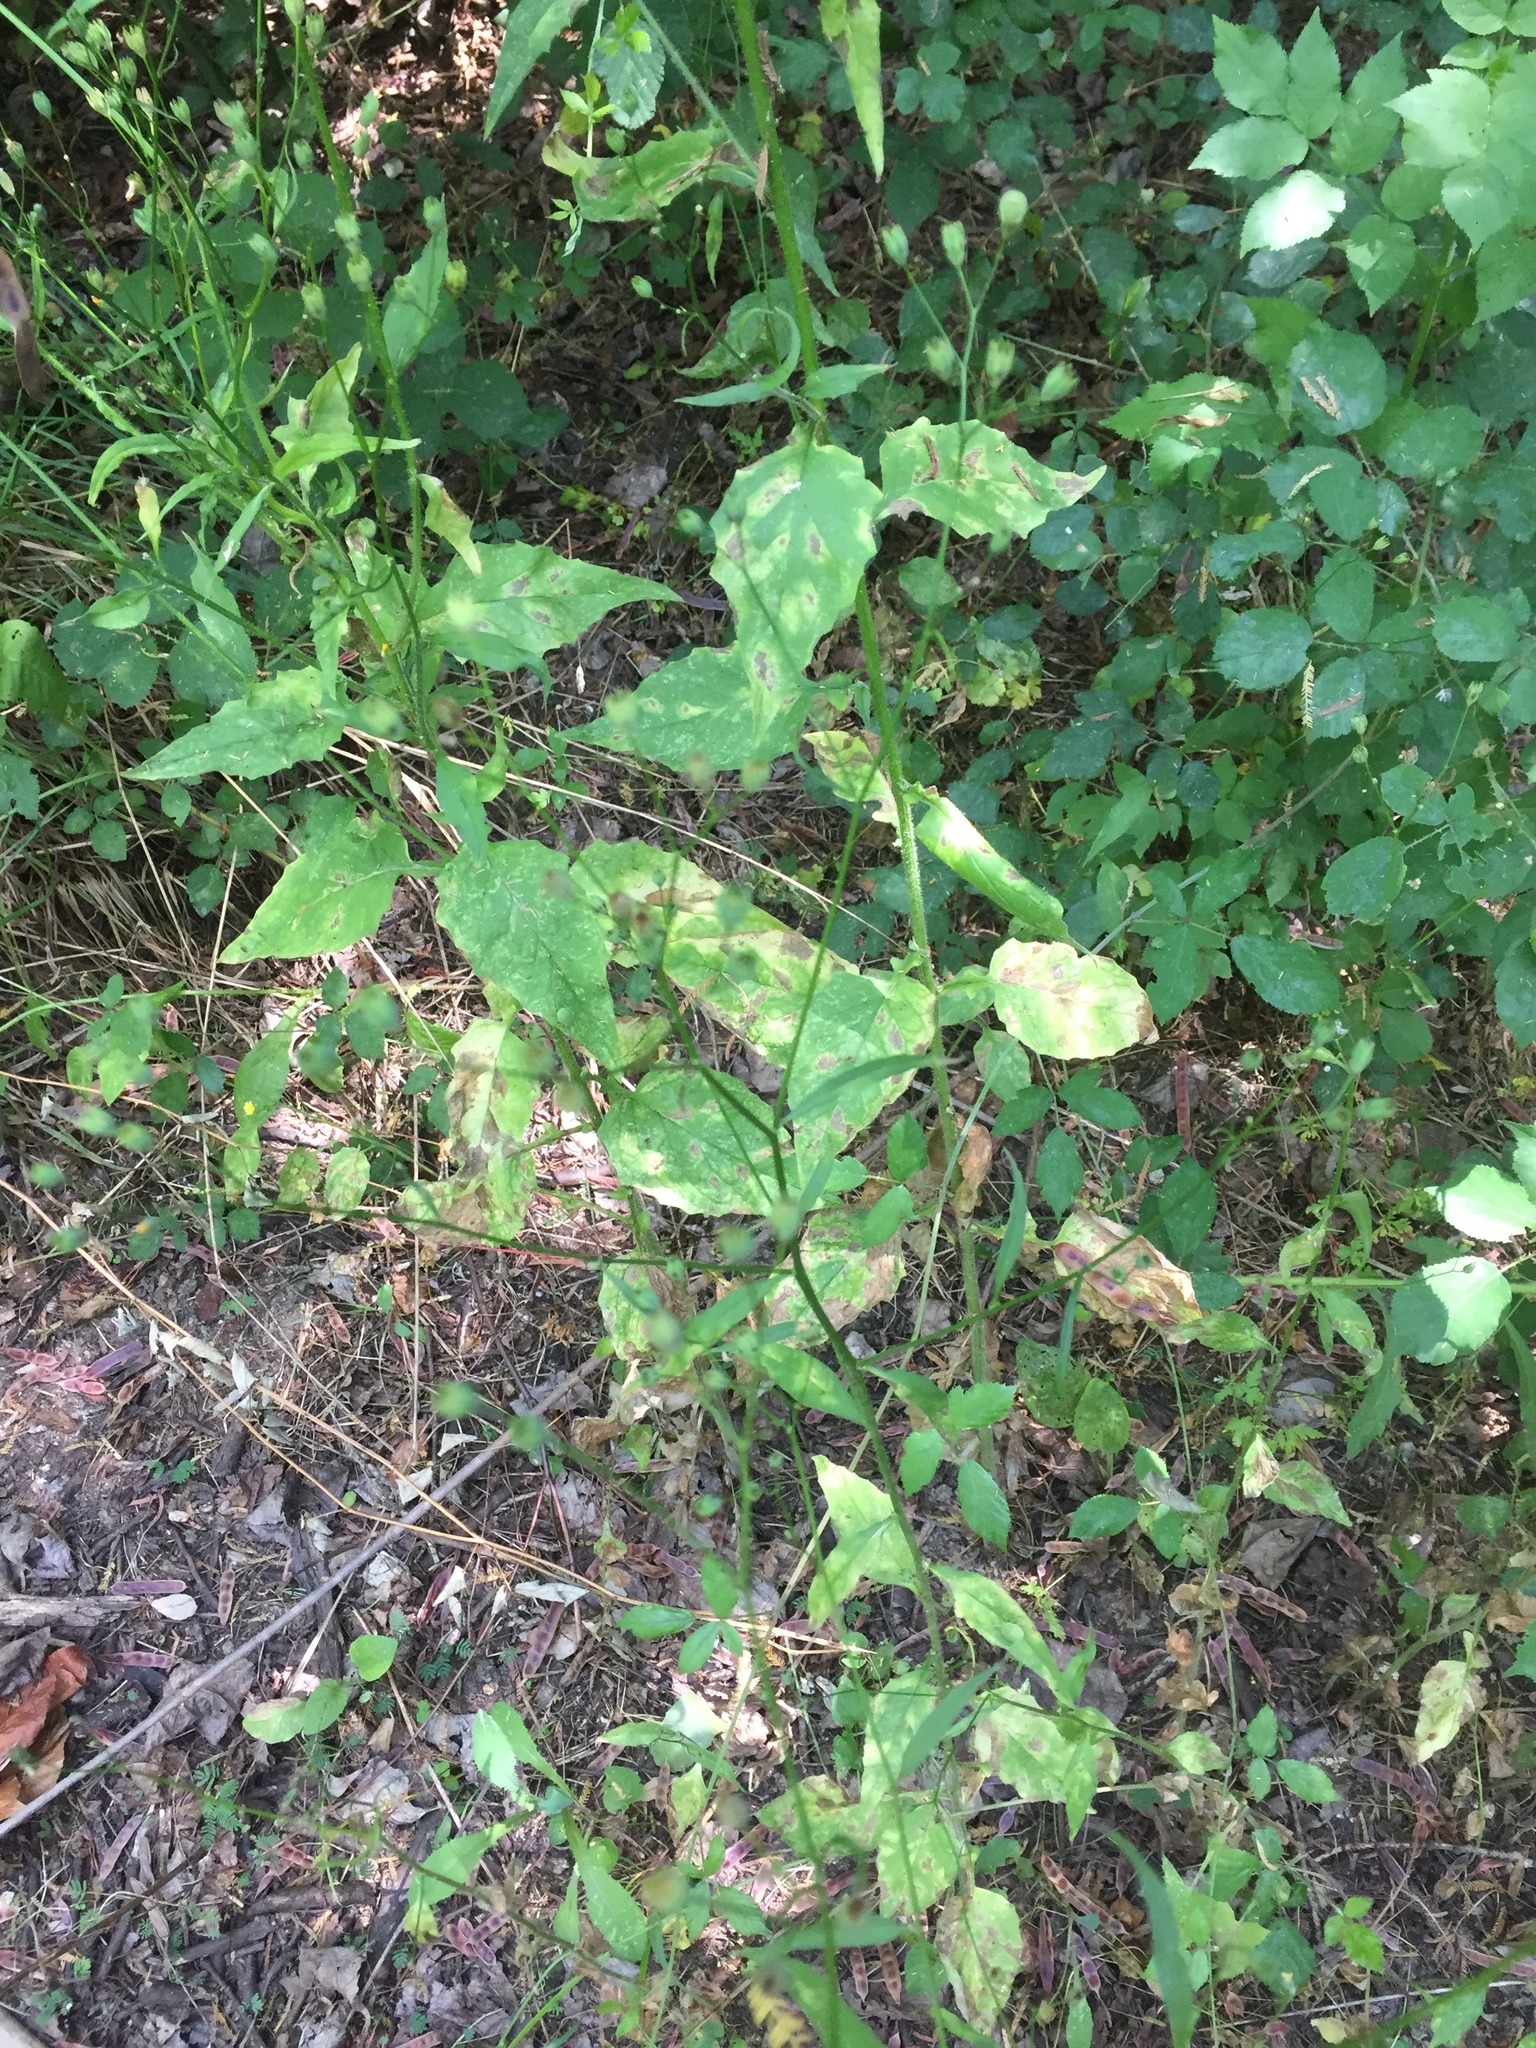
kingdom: Plantae
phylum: Tracheophyta
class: Magnoliopsida
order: Asterales
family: Asteraceae
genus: Lapsana
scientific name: Lapsana communis
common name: Nipplewort
